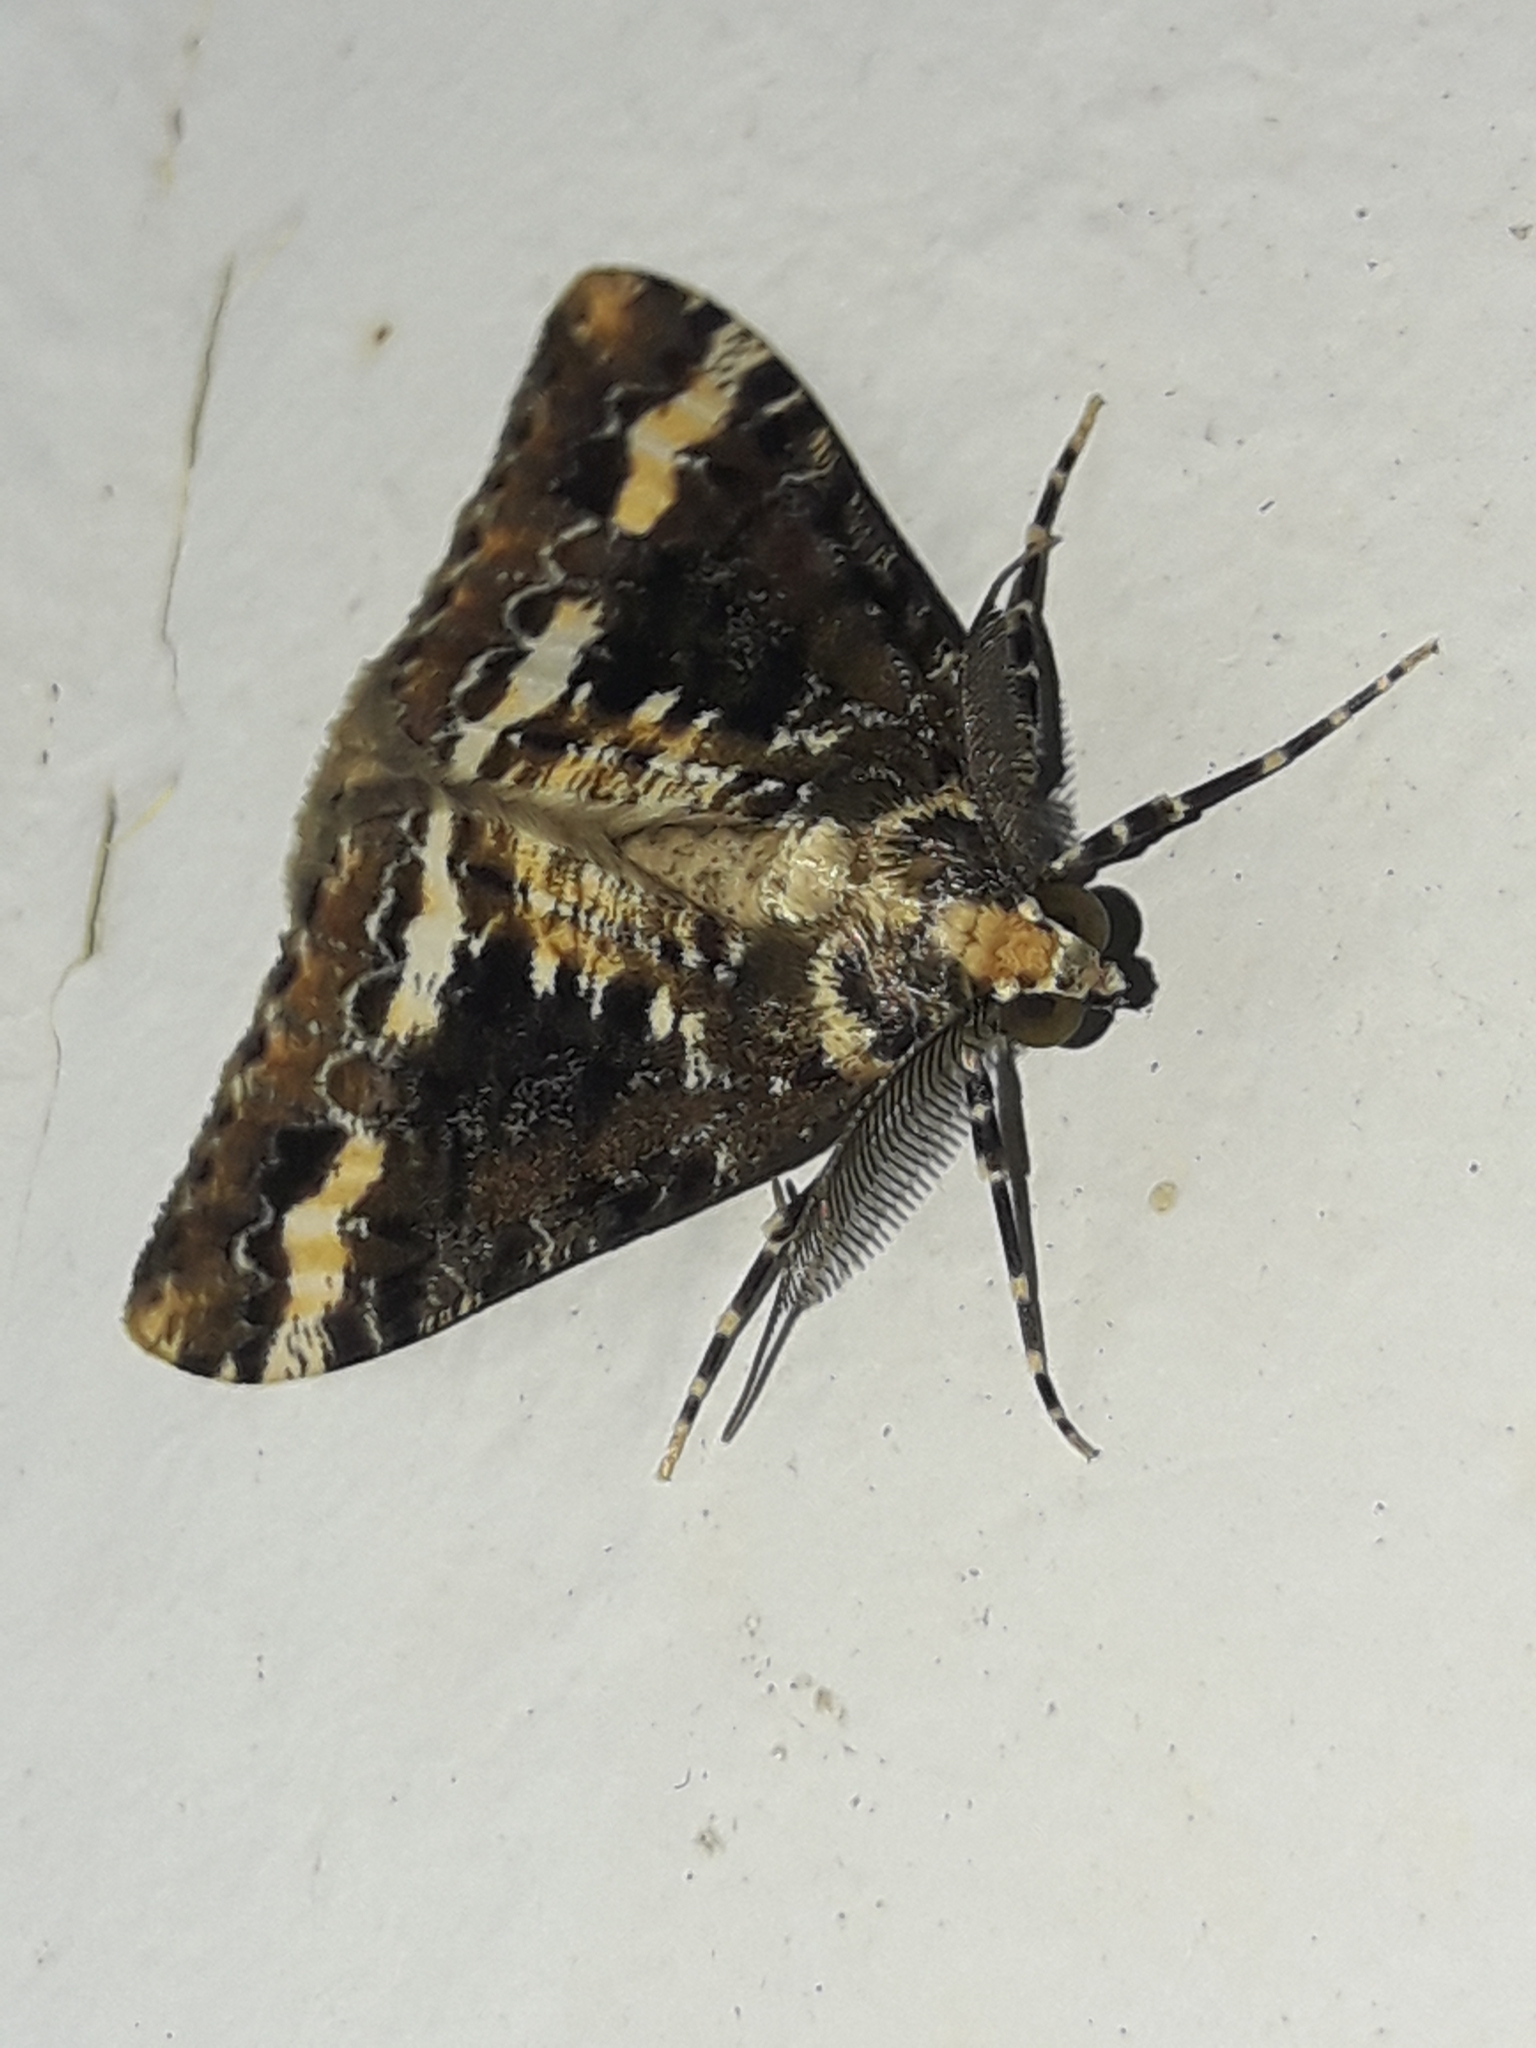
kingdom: Animalia
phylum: Arthropoda
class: Insecta
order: Lepidoptera
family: Geometridae
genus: Pseudocoremia
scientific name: Pseudocoremia leucelaea
